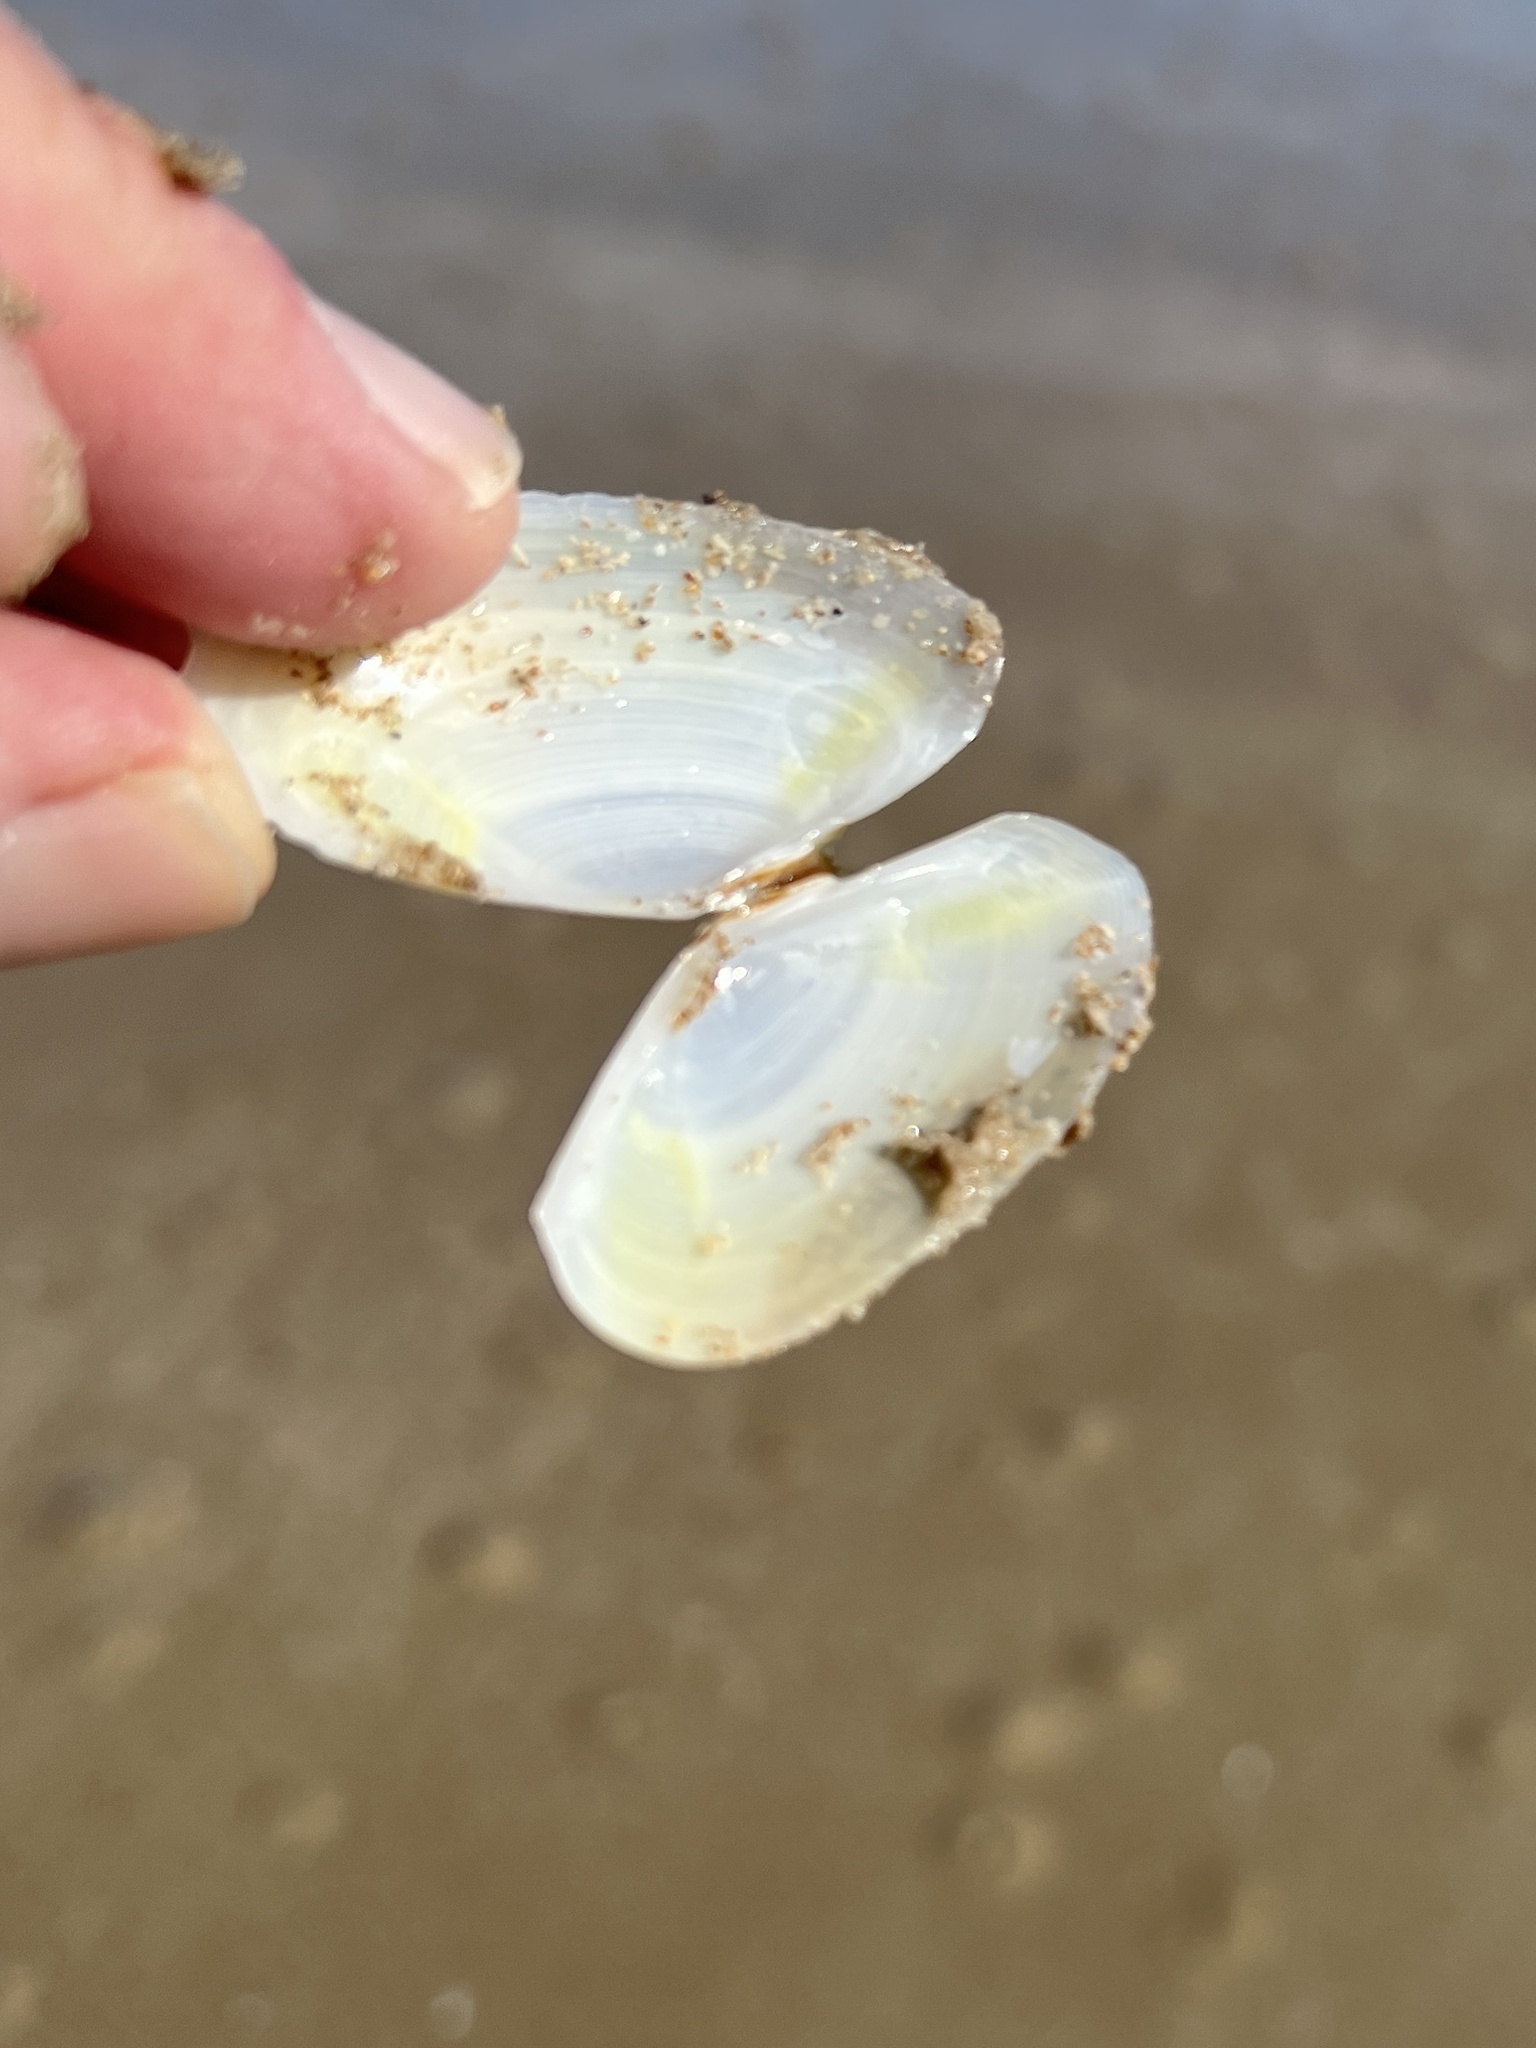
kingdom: Animalia
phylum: Mollusca
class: Bivalvia
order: Cardiida
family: Tellinidae
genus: Eurytellina
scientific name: Eurytellina alternata
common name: Alternate tellin
